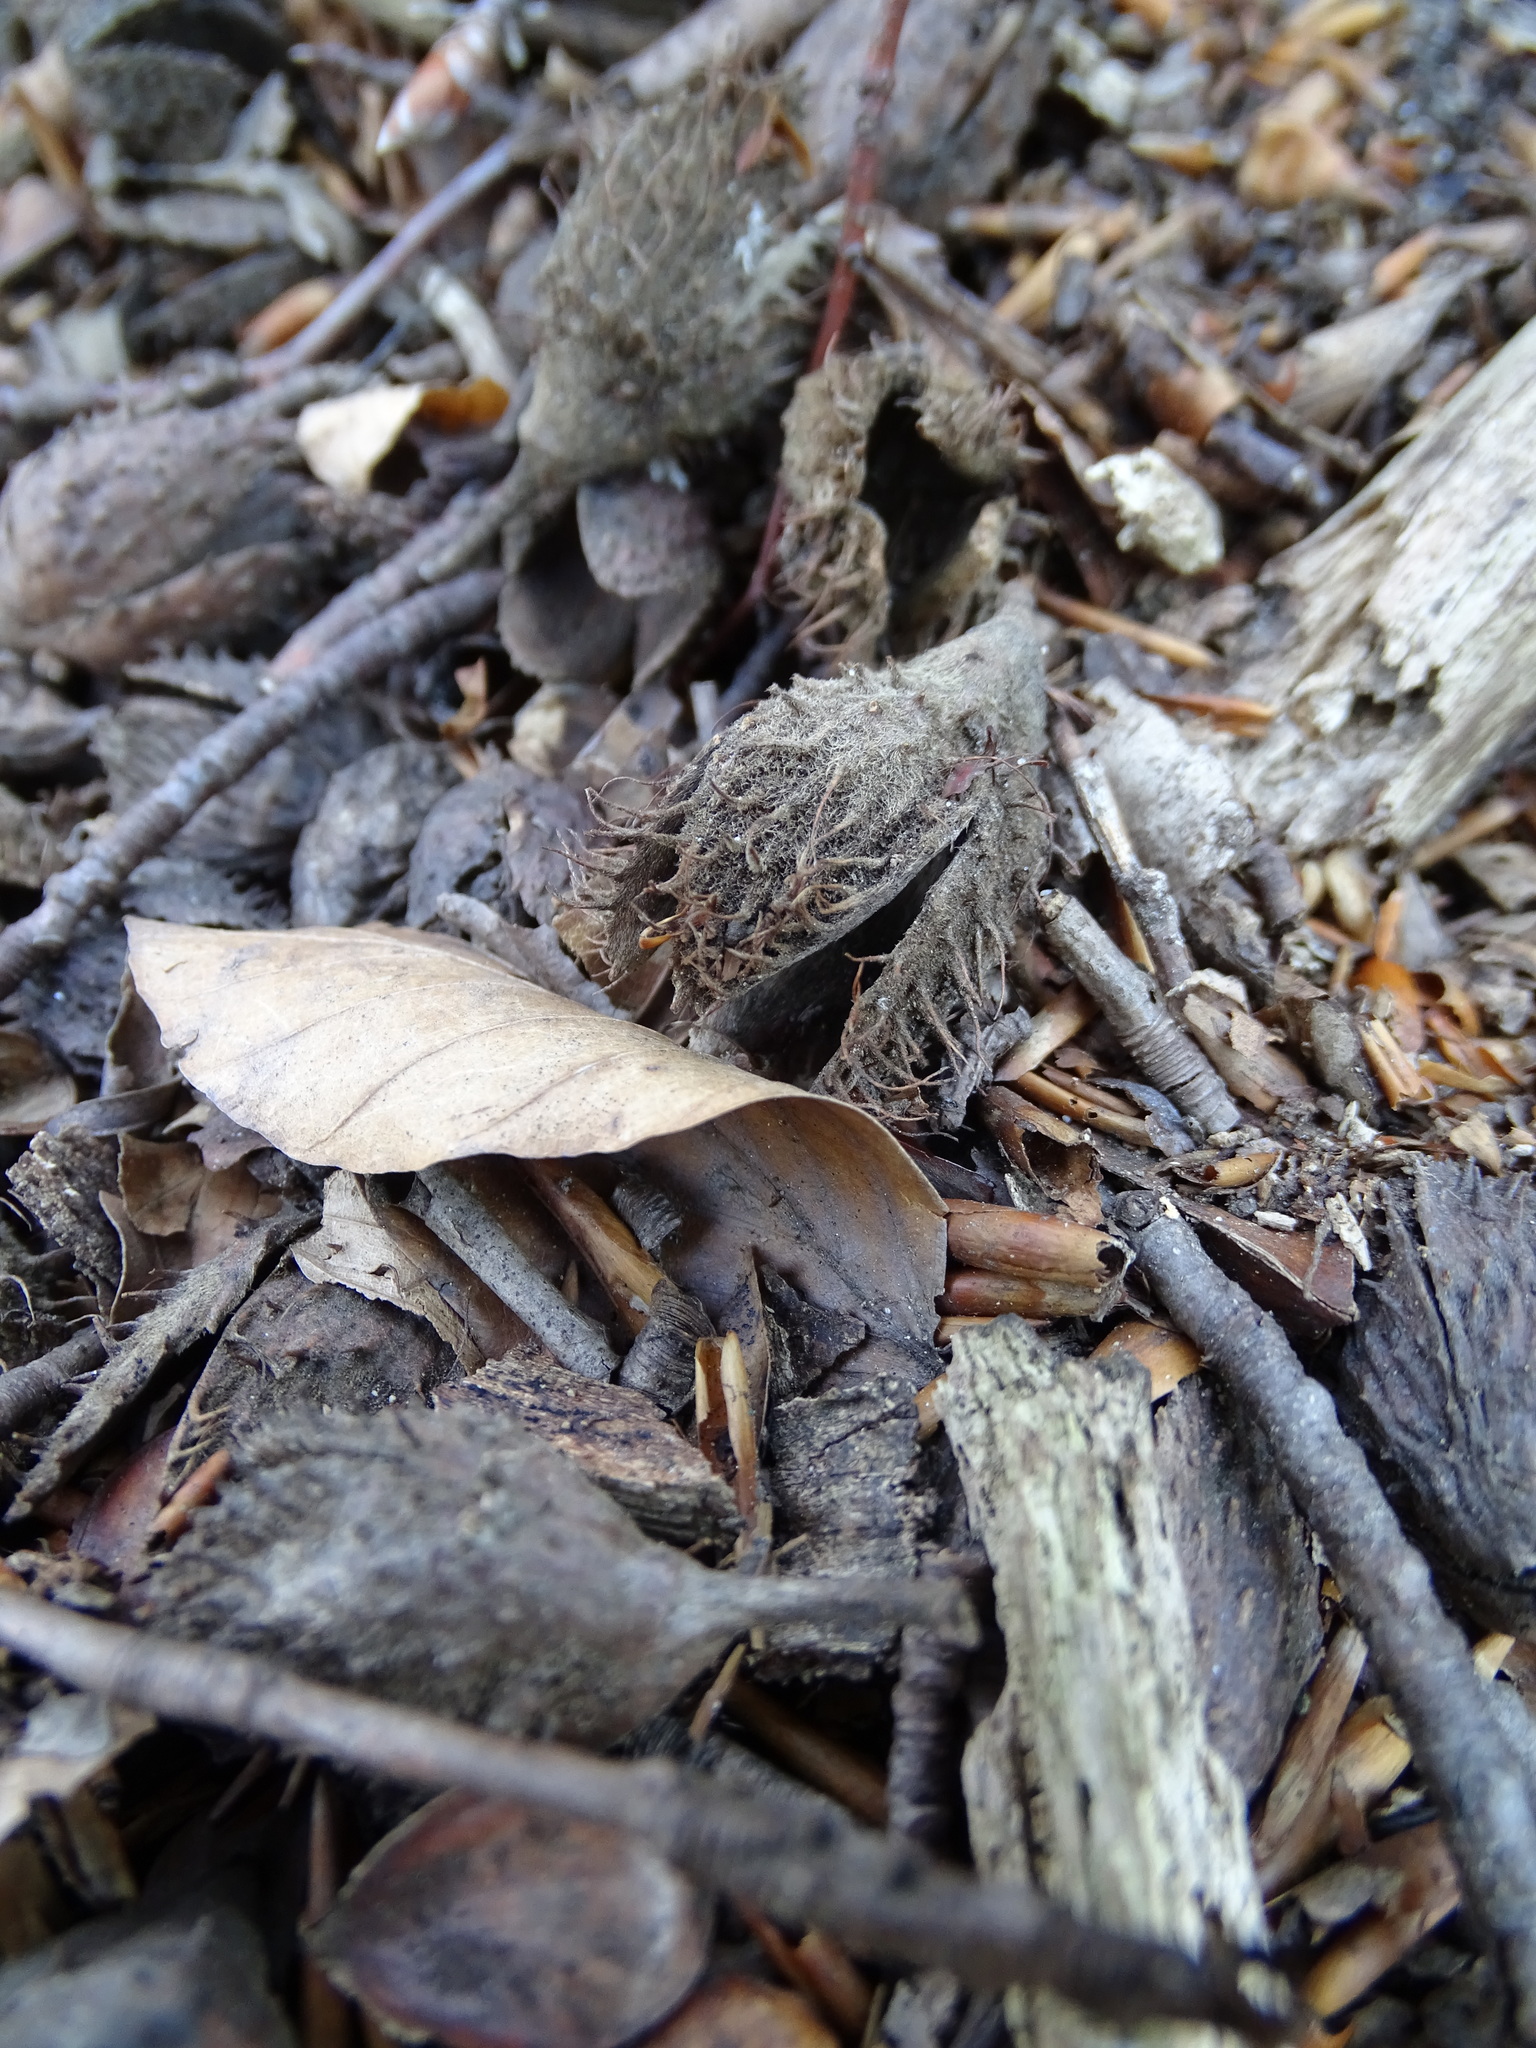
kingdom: Plantae
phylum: Tracheophyta
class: Magnoliopsida
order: Fagales
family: Fagaceae
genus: Fagus
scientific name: Fagus sylvatica
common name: Beech
